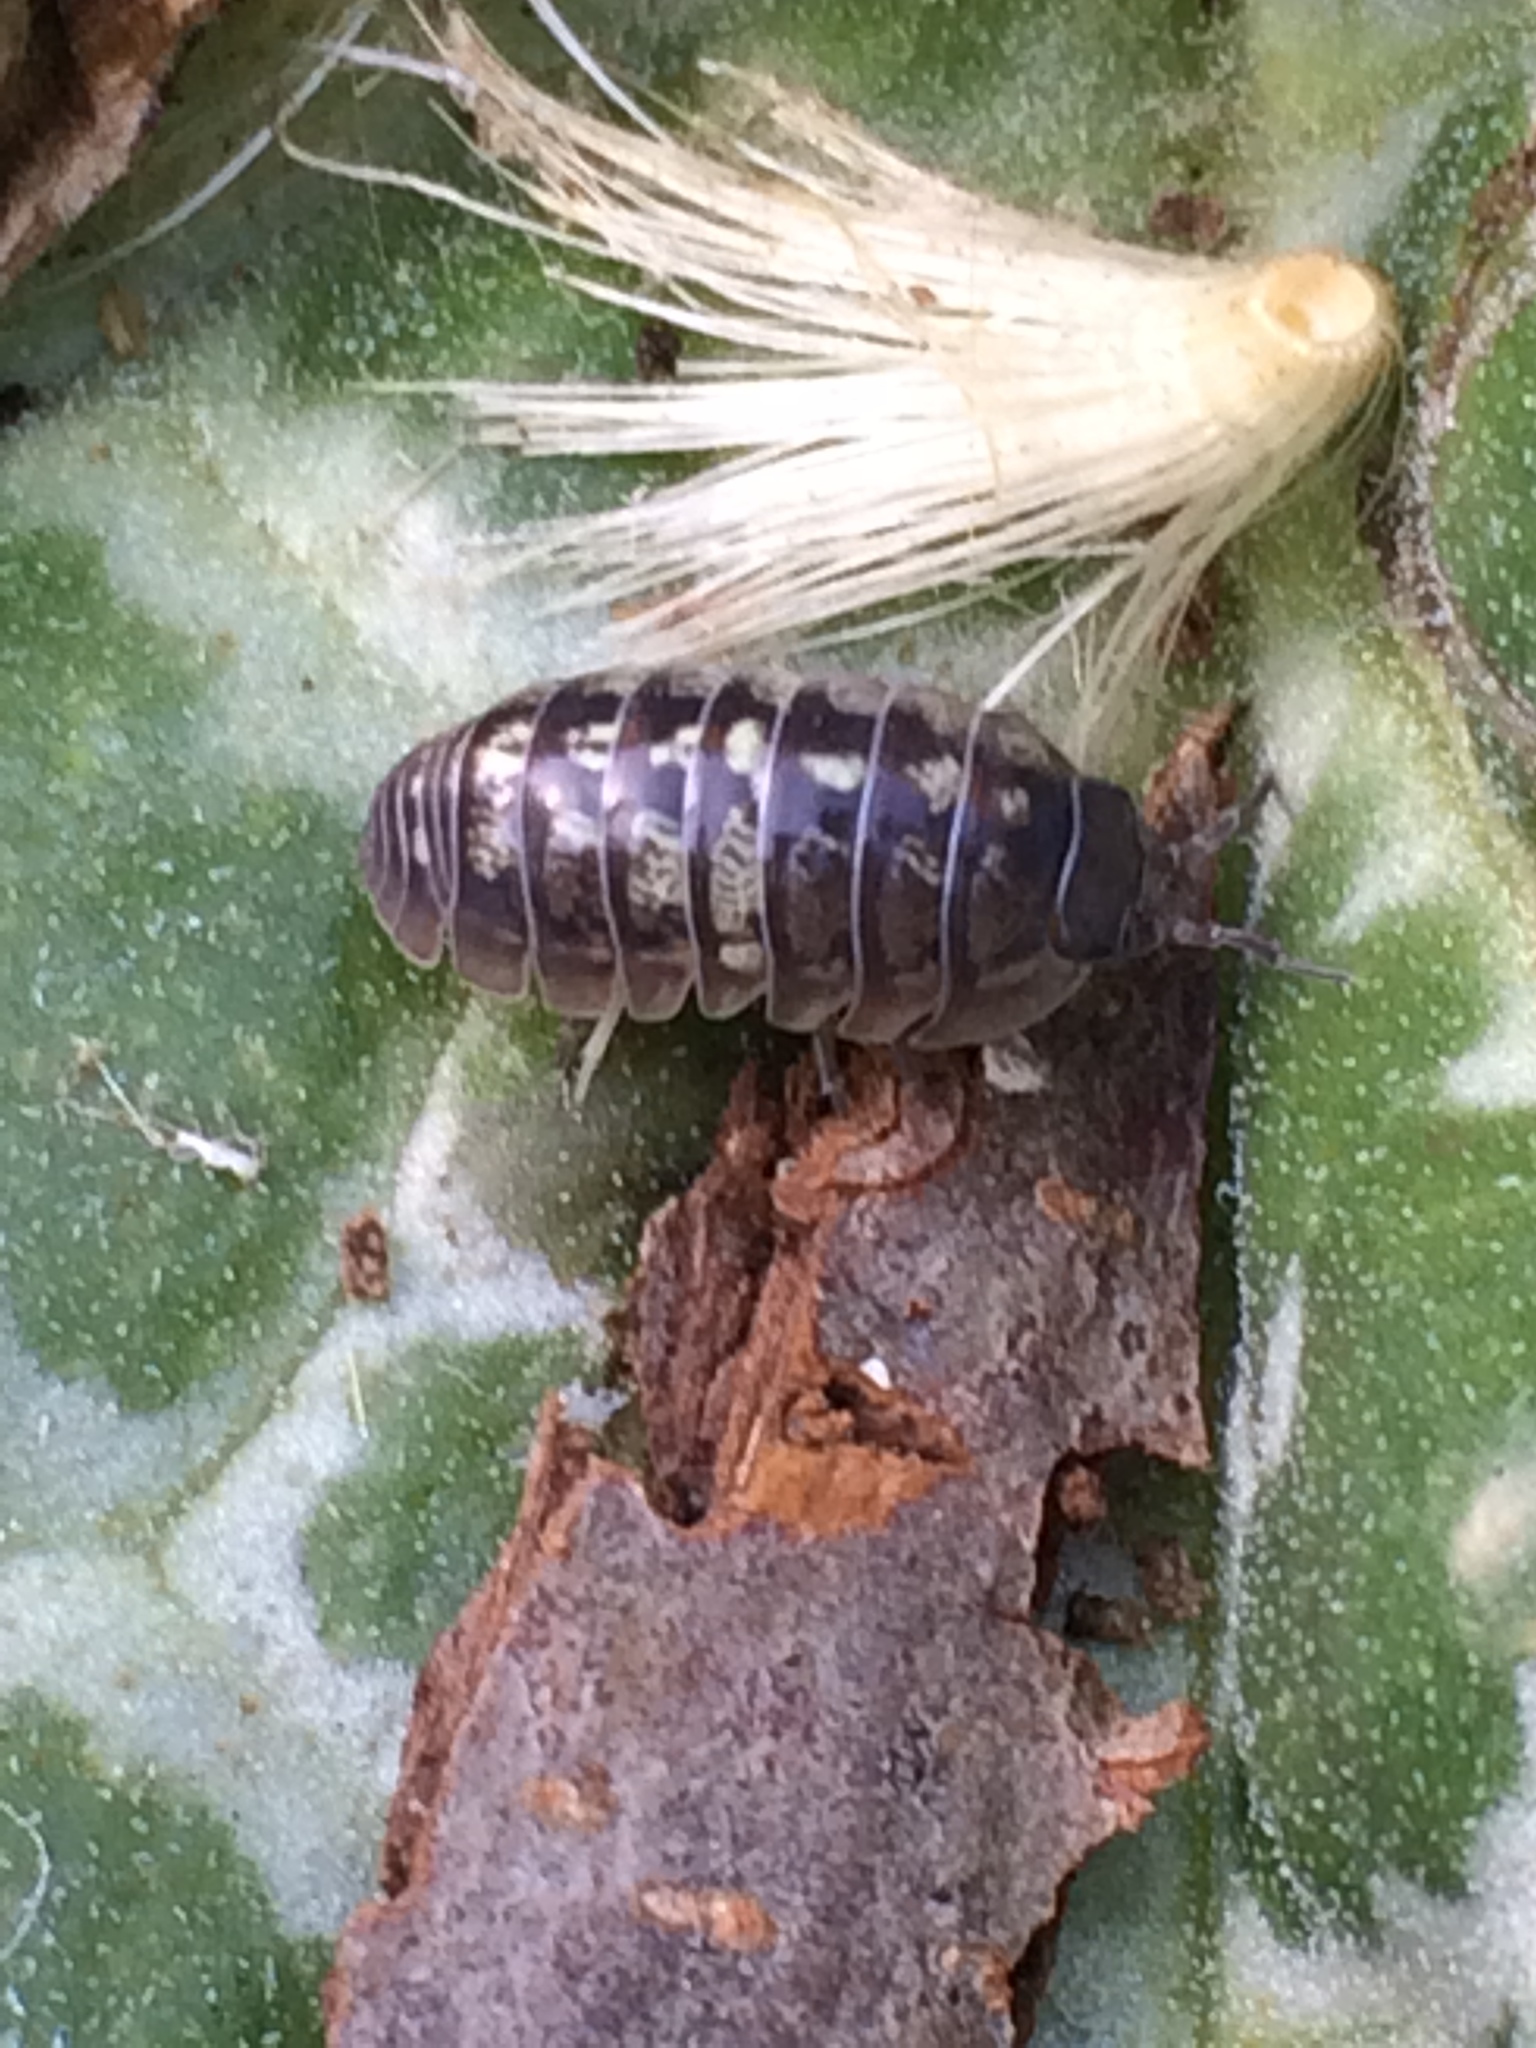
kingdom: Animalia
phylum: Arthropoda
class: Malacostraca
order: Isopoda
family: Armadillidiidae
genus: Armadillidium
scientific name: Armadillidium vulgare
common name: Common pill woodlouse
